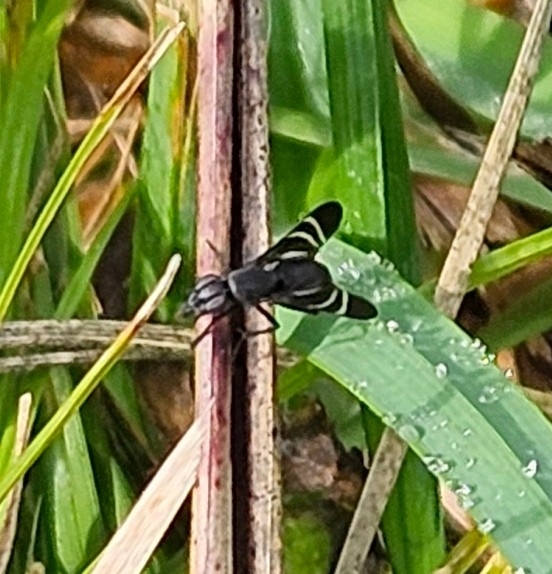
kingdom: Animalia
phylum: Arthropoda
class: Insecta
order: Diptera
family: Ulidiidae
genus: Tritoxa
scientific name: Tritoxa flexa
